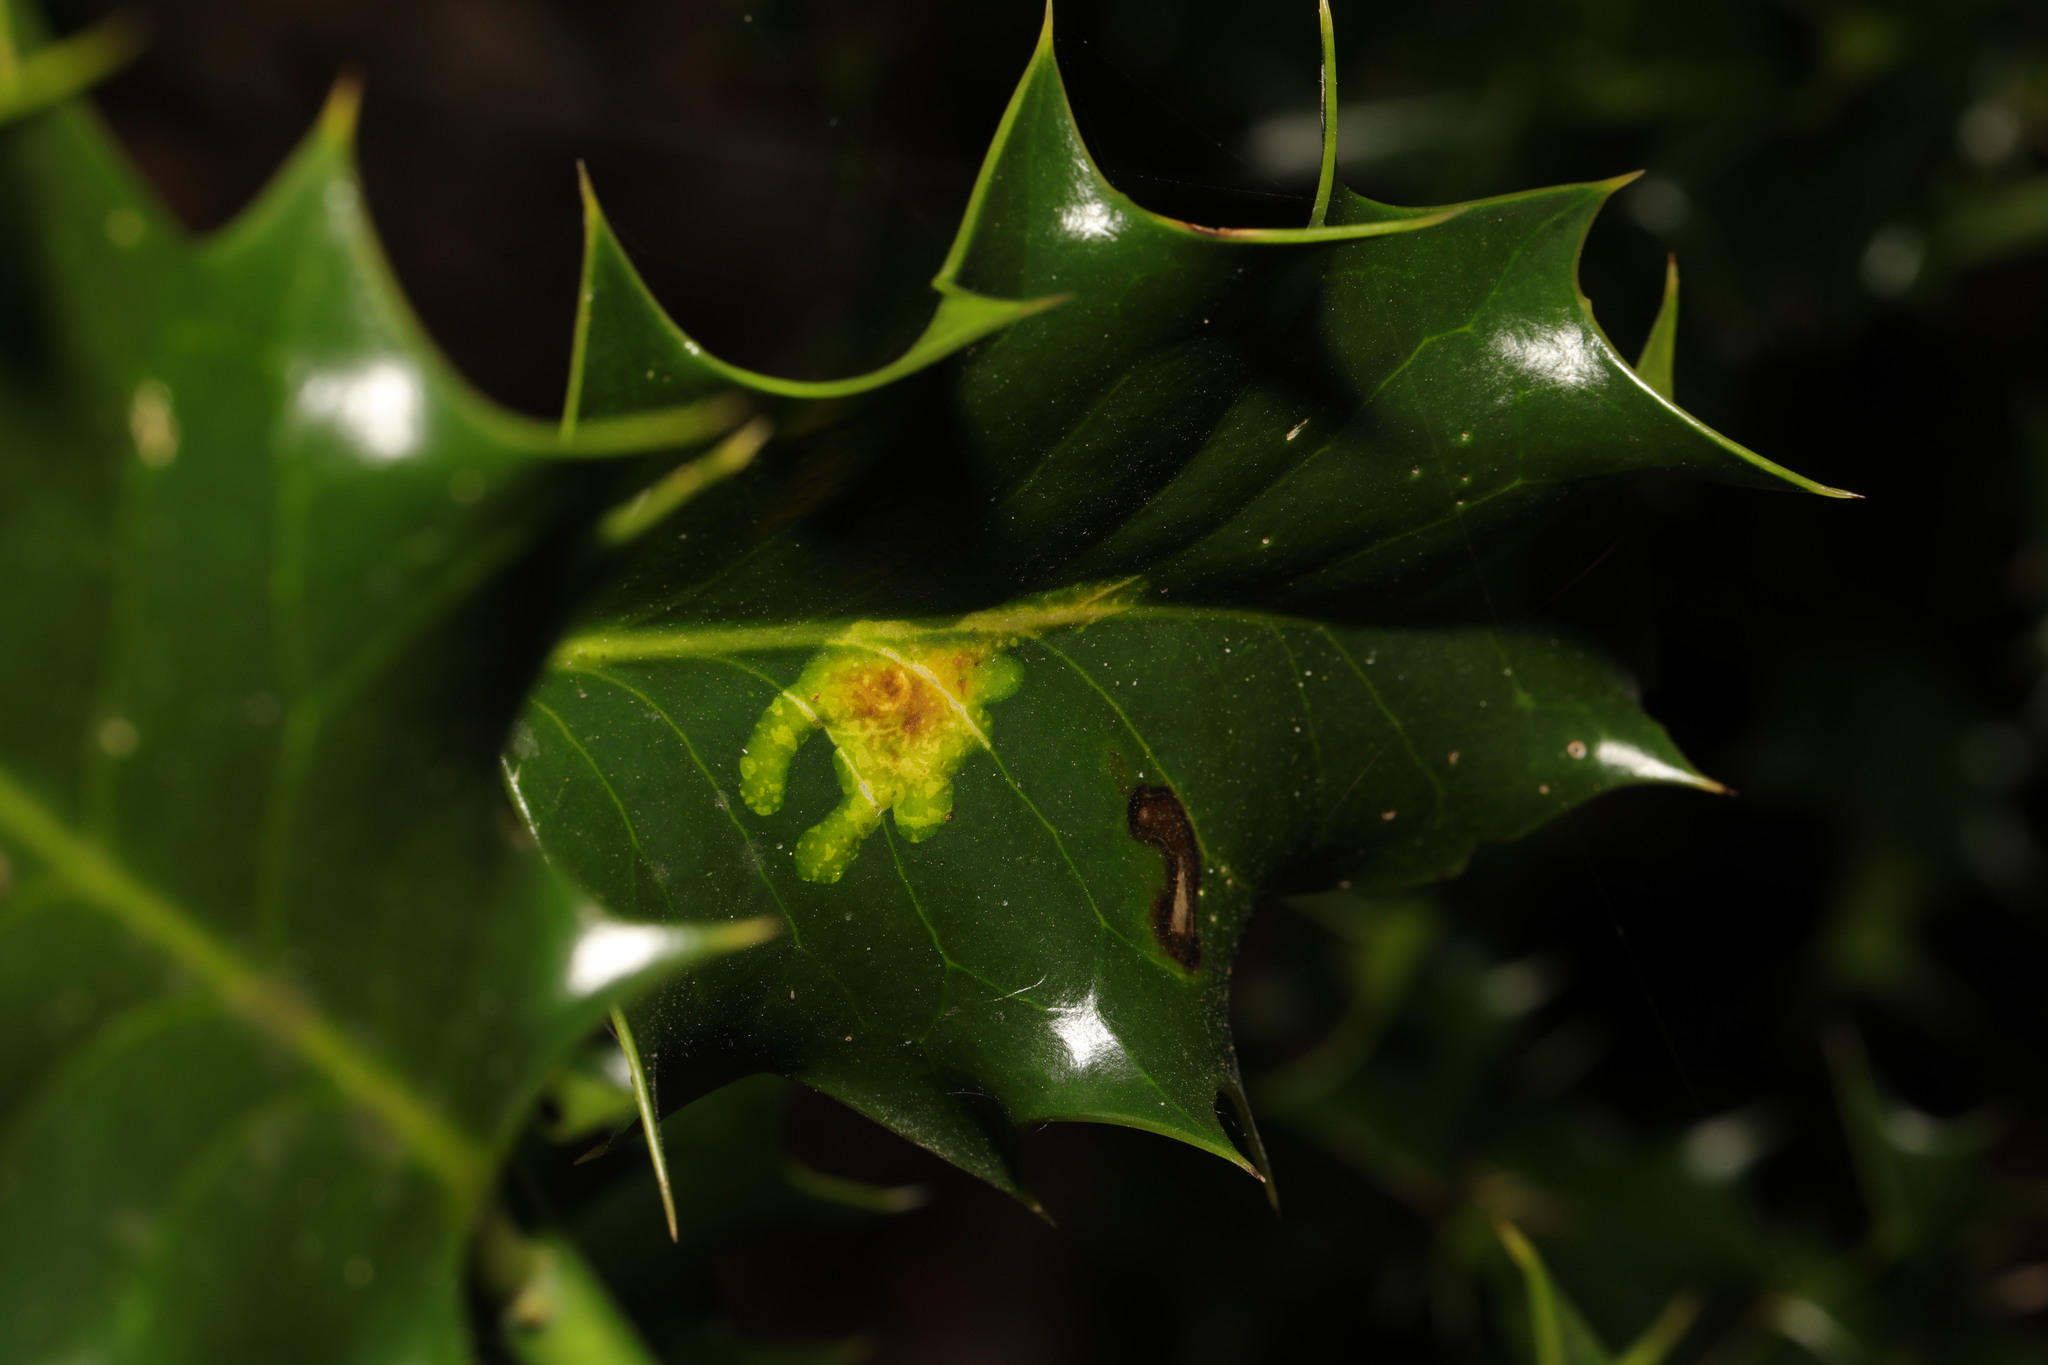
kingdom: Animalia
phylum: Arthropoda
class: Insecta
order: Diptera
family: Agromyzidae
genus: Phytomyza
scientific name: Phytomyza ilicis
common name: Holly leafminer
